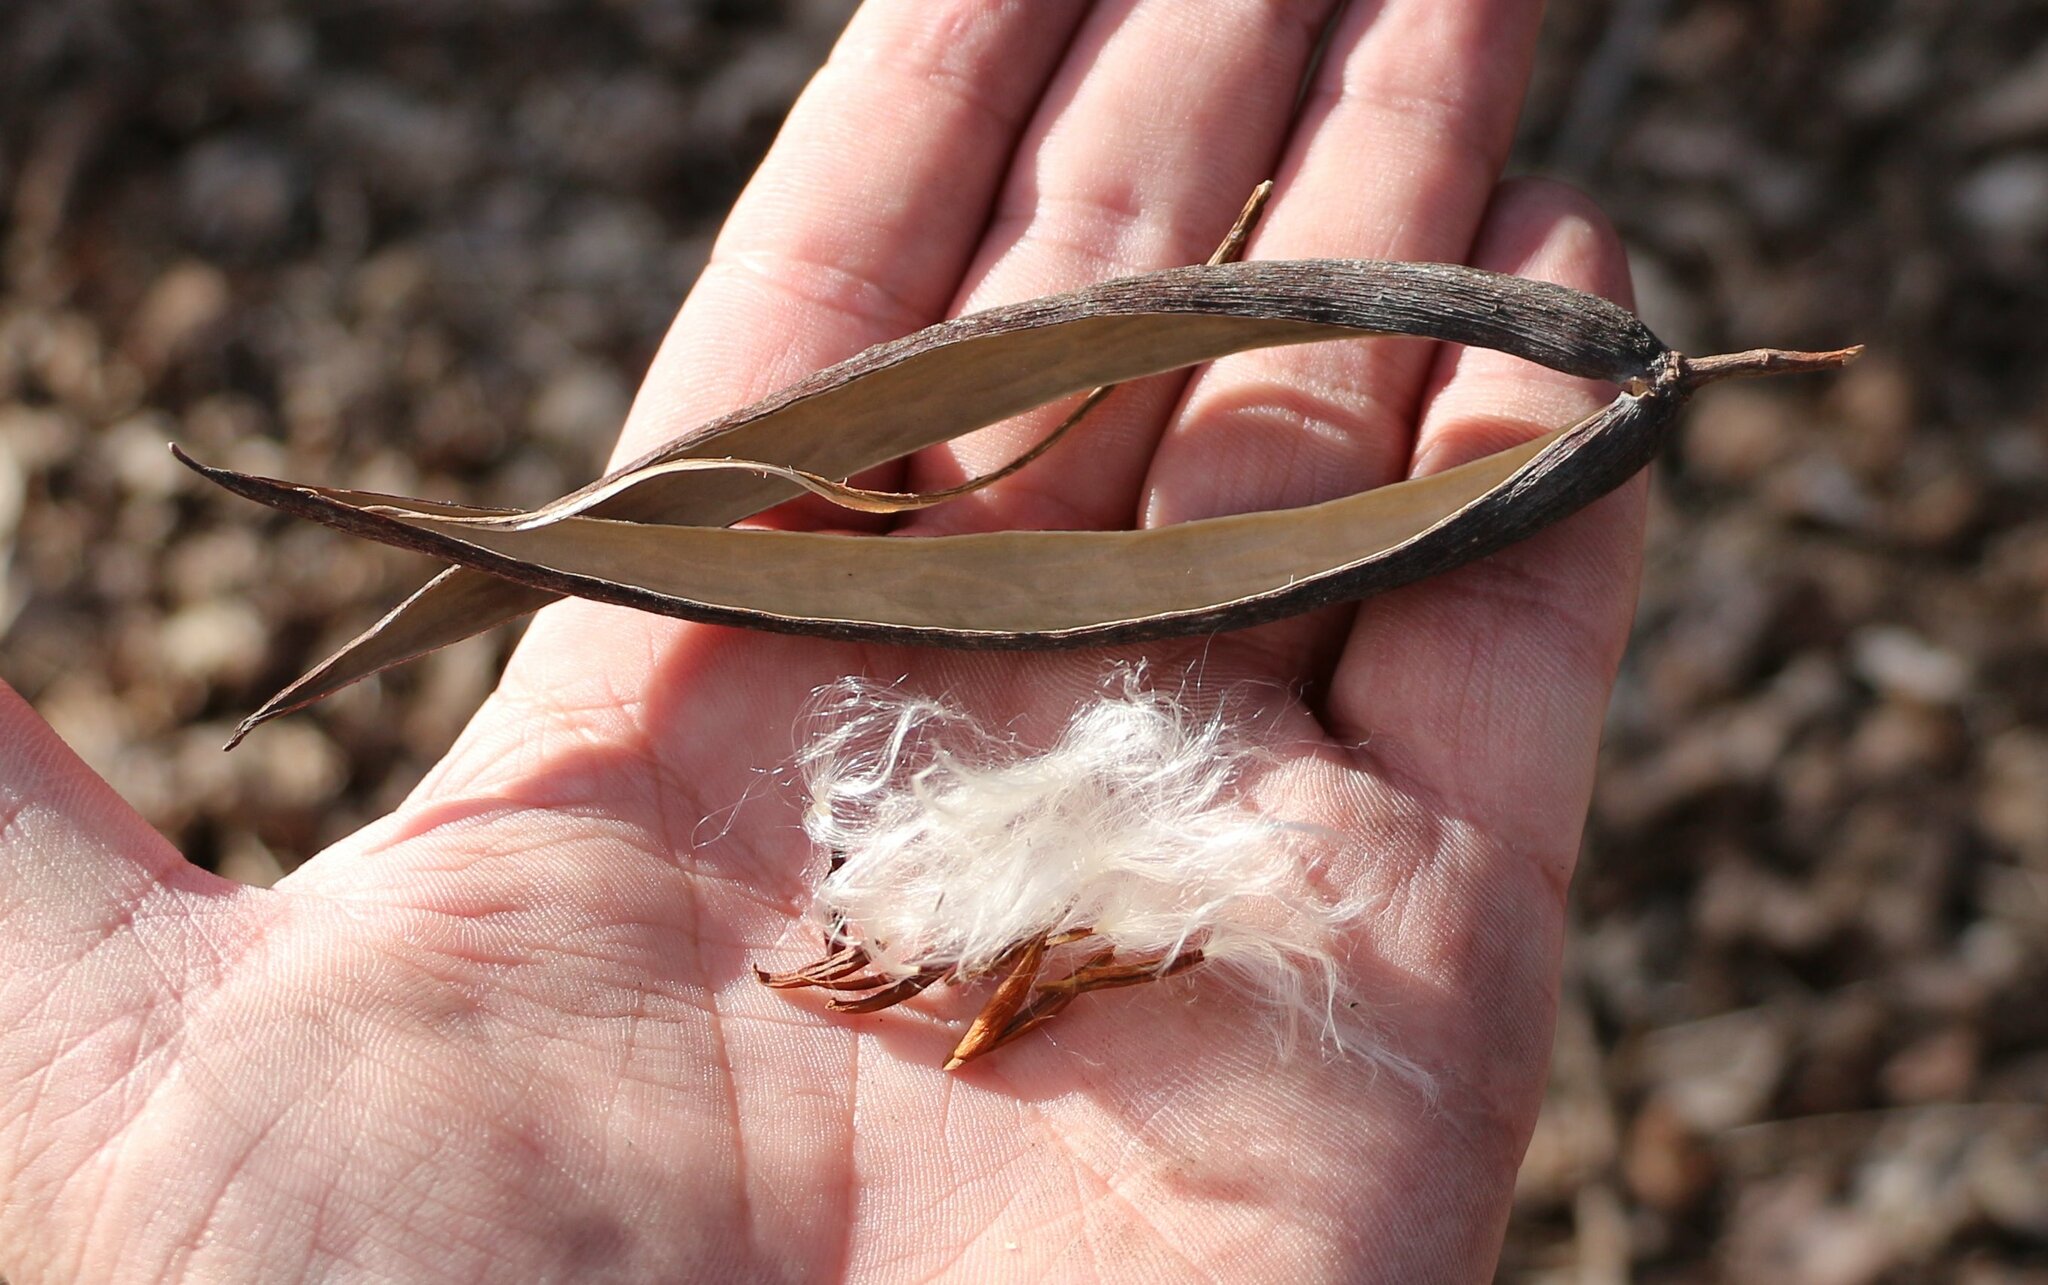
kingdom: Plantae
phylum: Tracheophyta
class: Magnoliopsida
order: Gentianales
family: Apocynaceae
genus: Periploca
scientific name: Periploca graeca
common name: Silkvine
